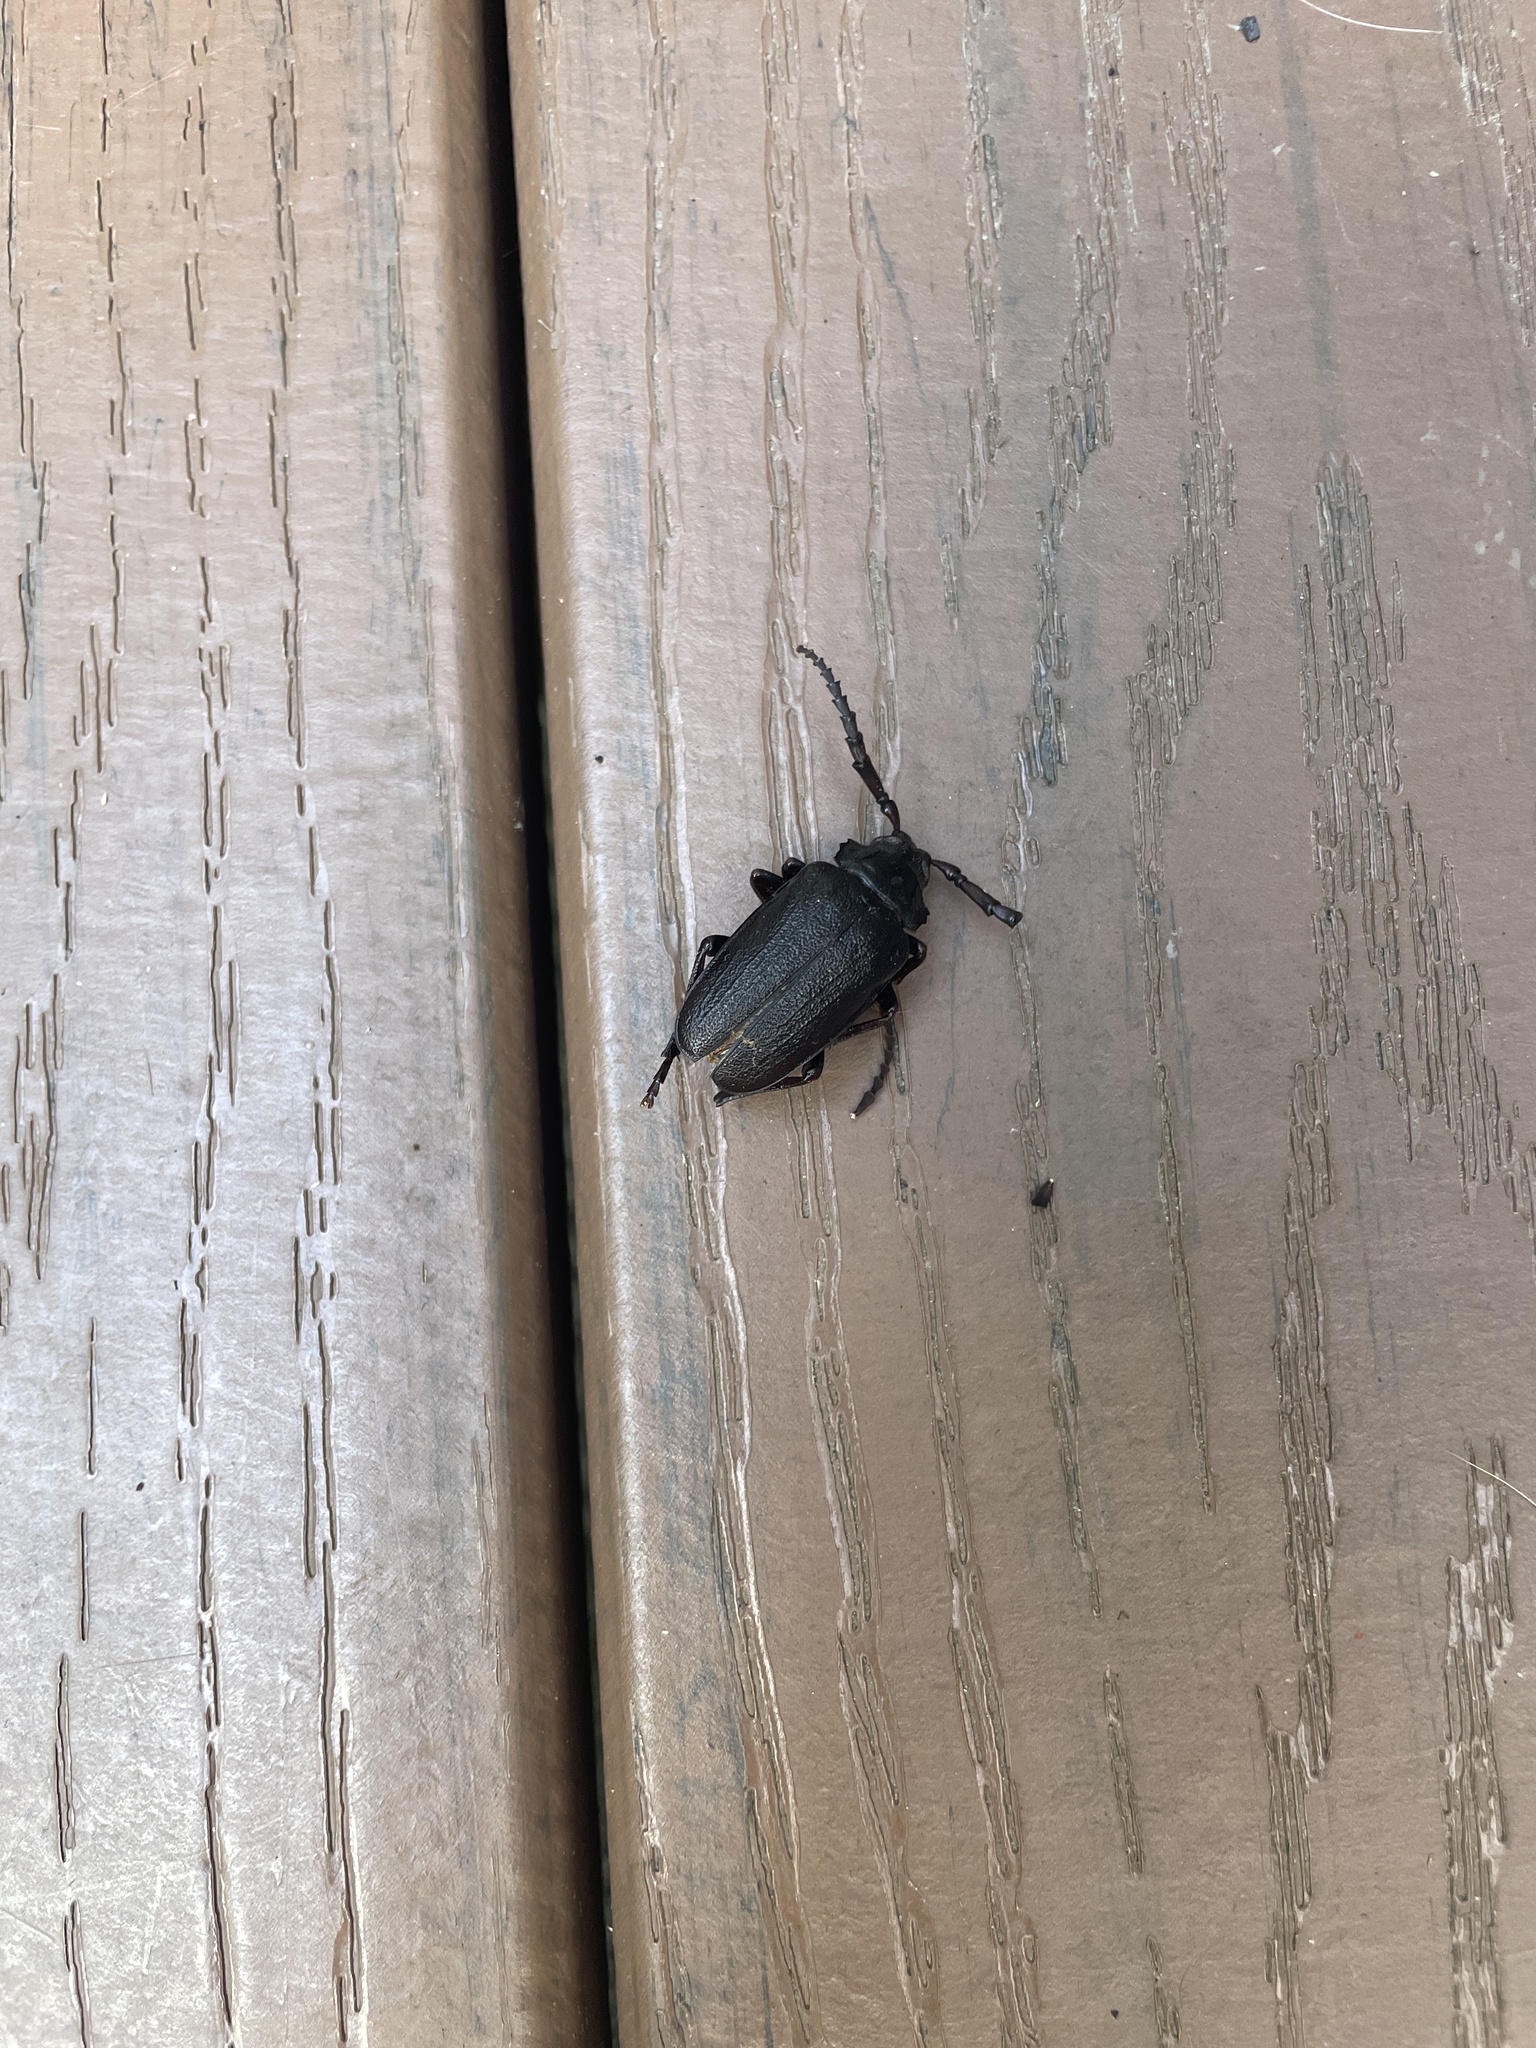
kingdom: Animalia
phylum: Arthropoda
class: Insecta
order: Coleoptera
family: Cerambycidae
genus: Prionus
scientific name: Prionus laticollis
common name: Broad necked prionus
